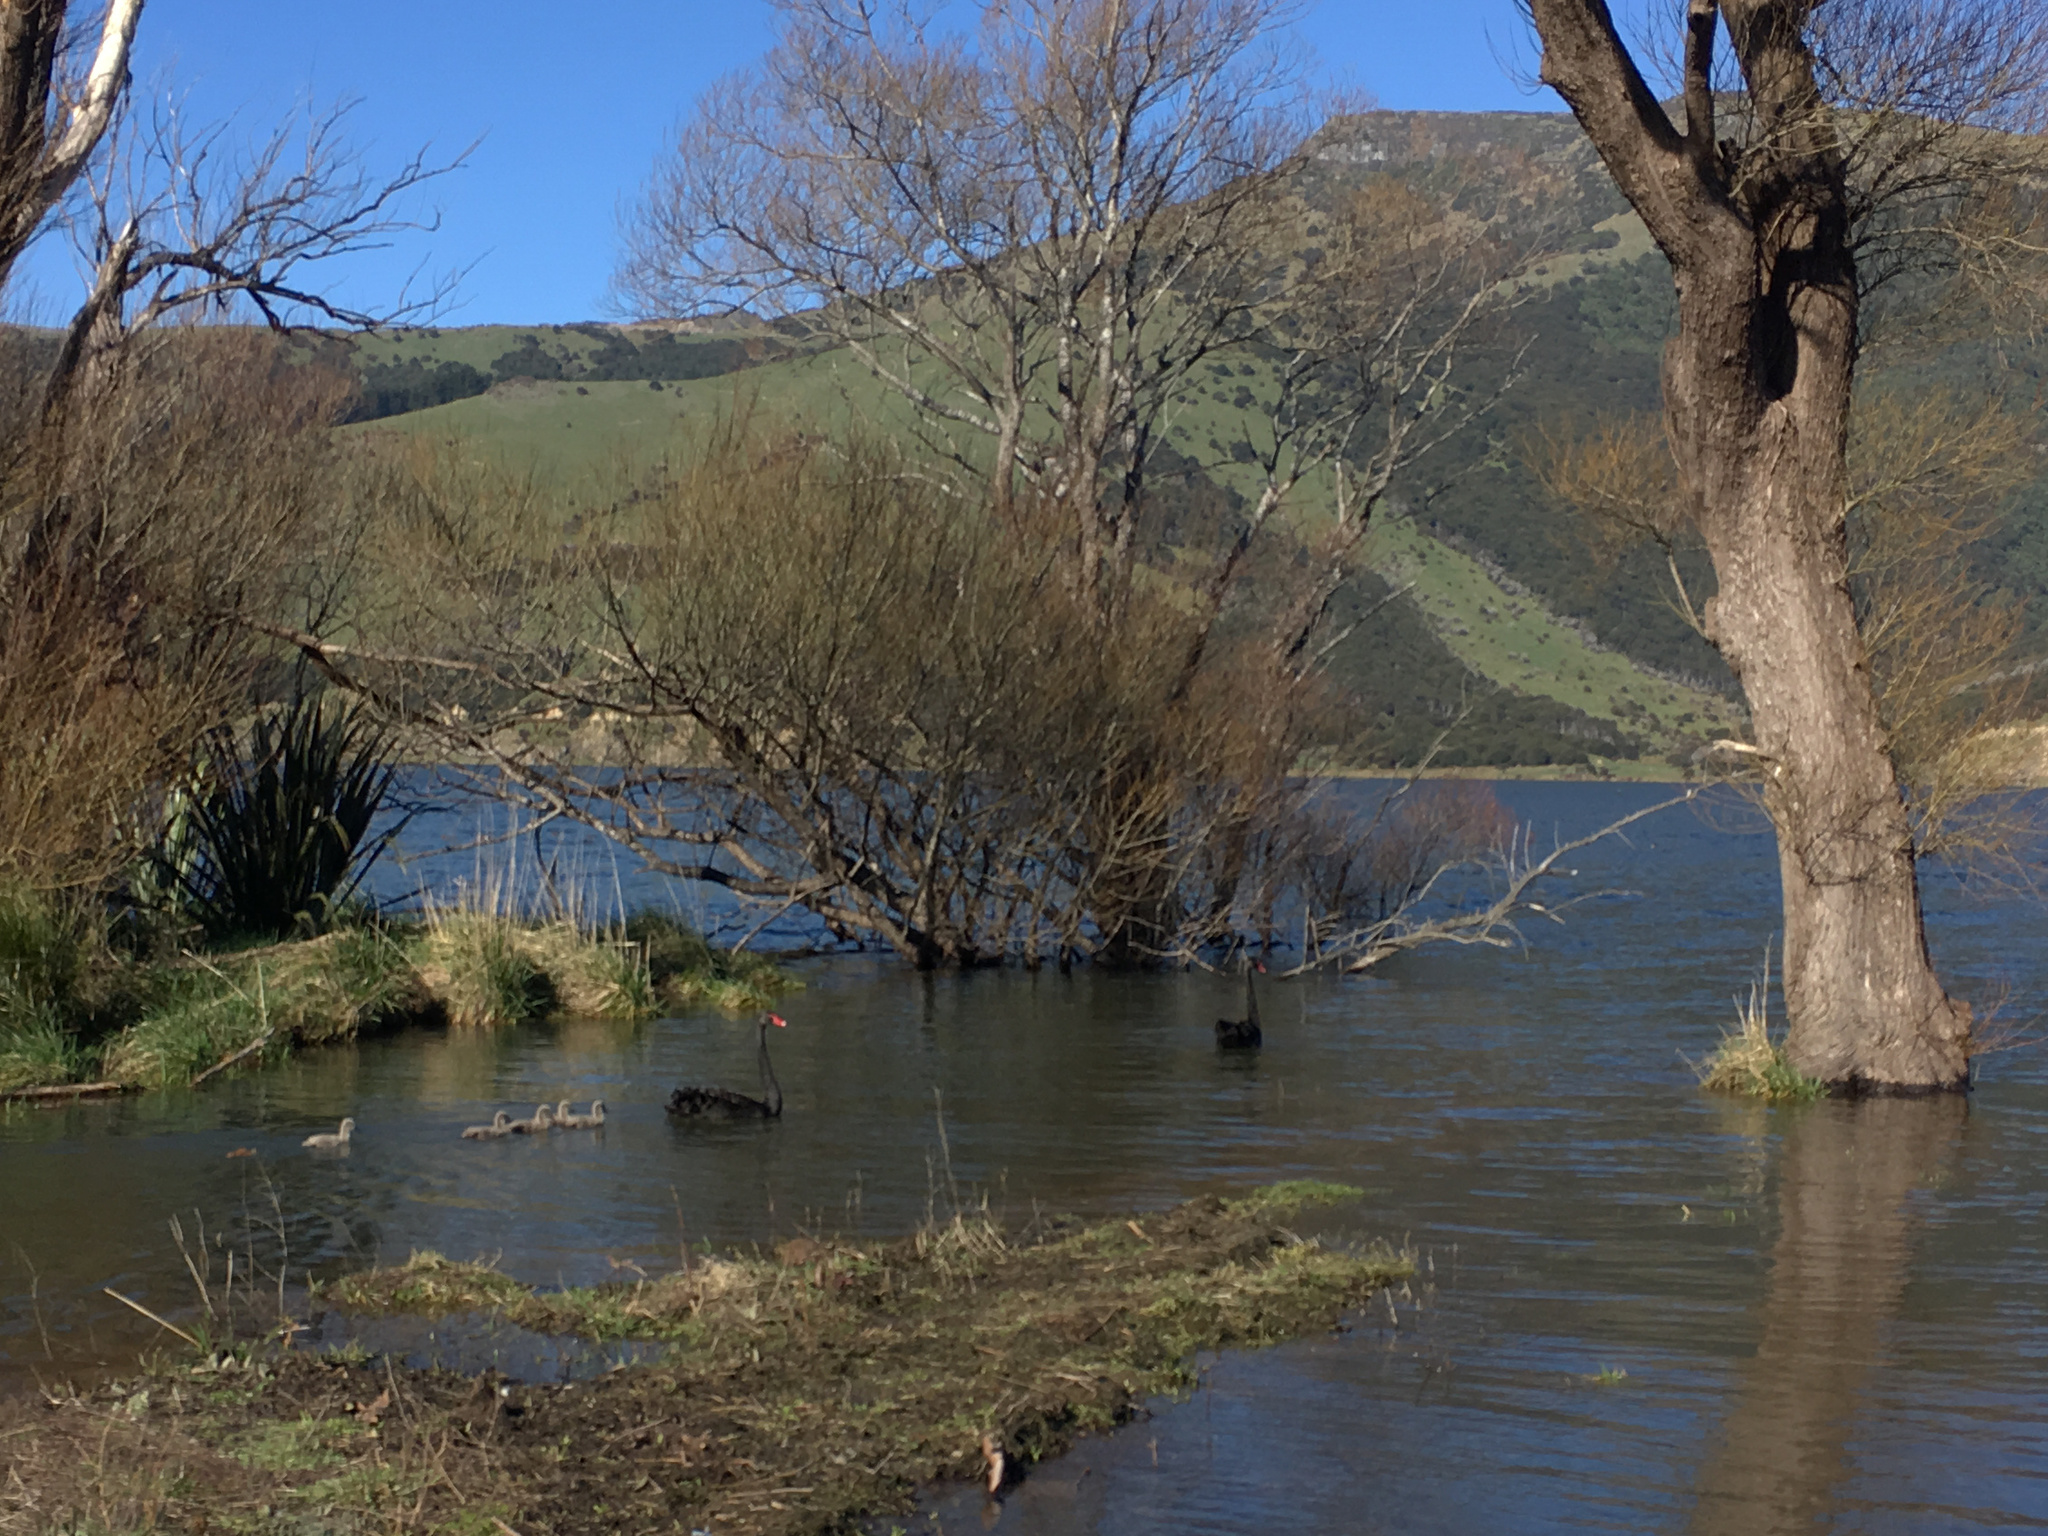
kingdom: Animalia
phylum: Chordata
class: Aves
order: Anseriformes
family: Anatidae
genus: Cygnus
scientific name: Cygnus atratus
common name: Black swan
